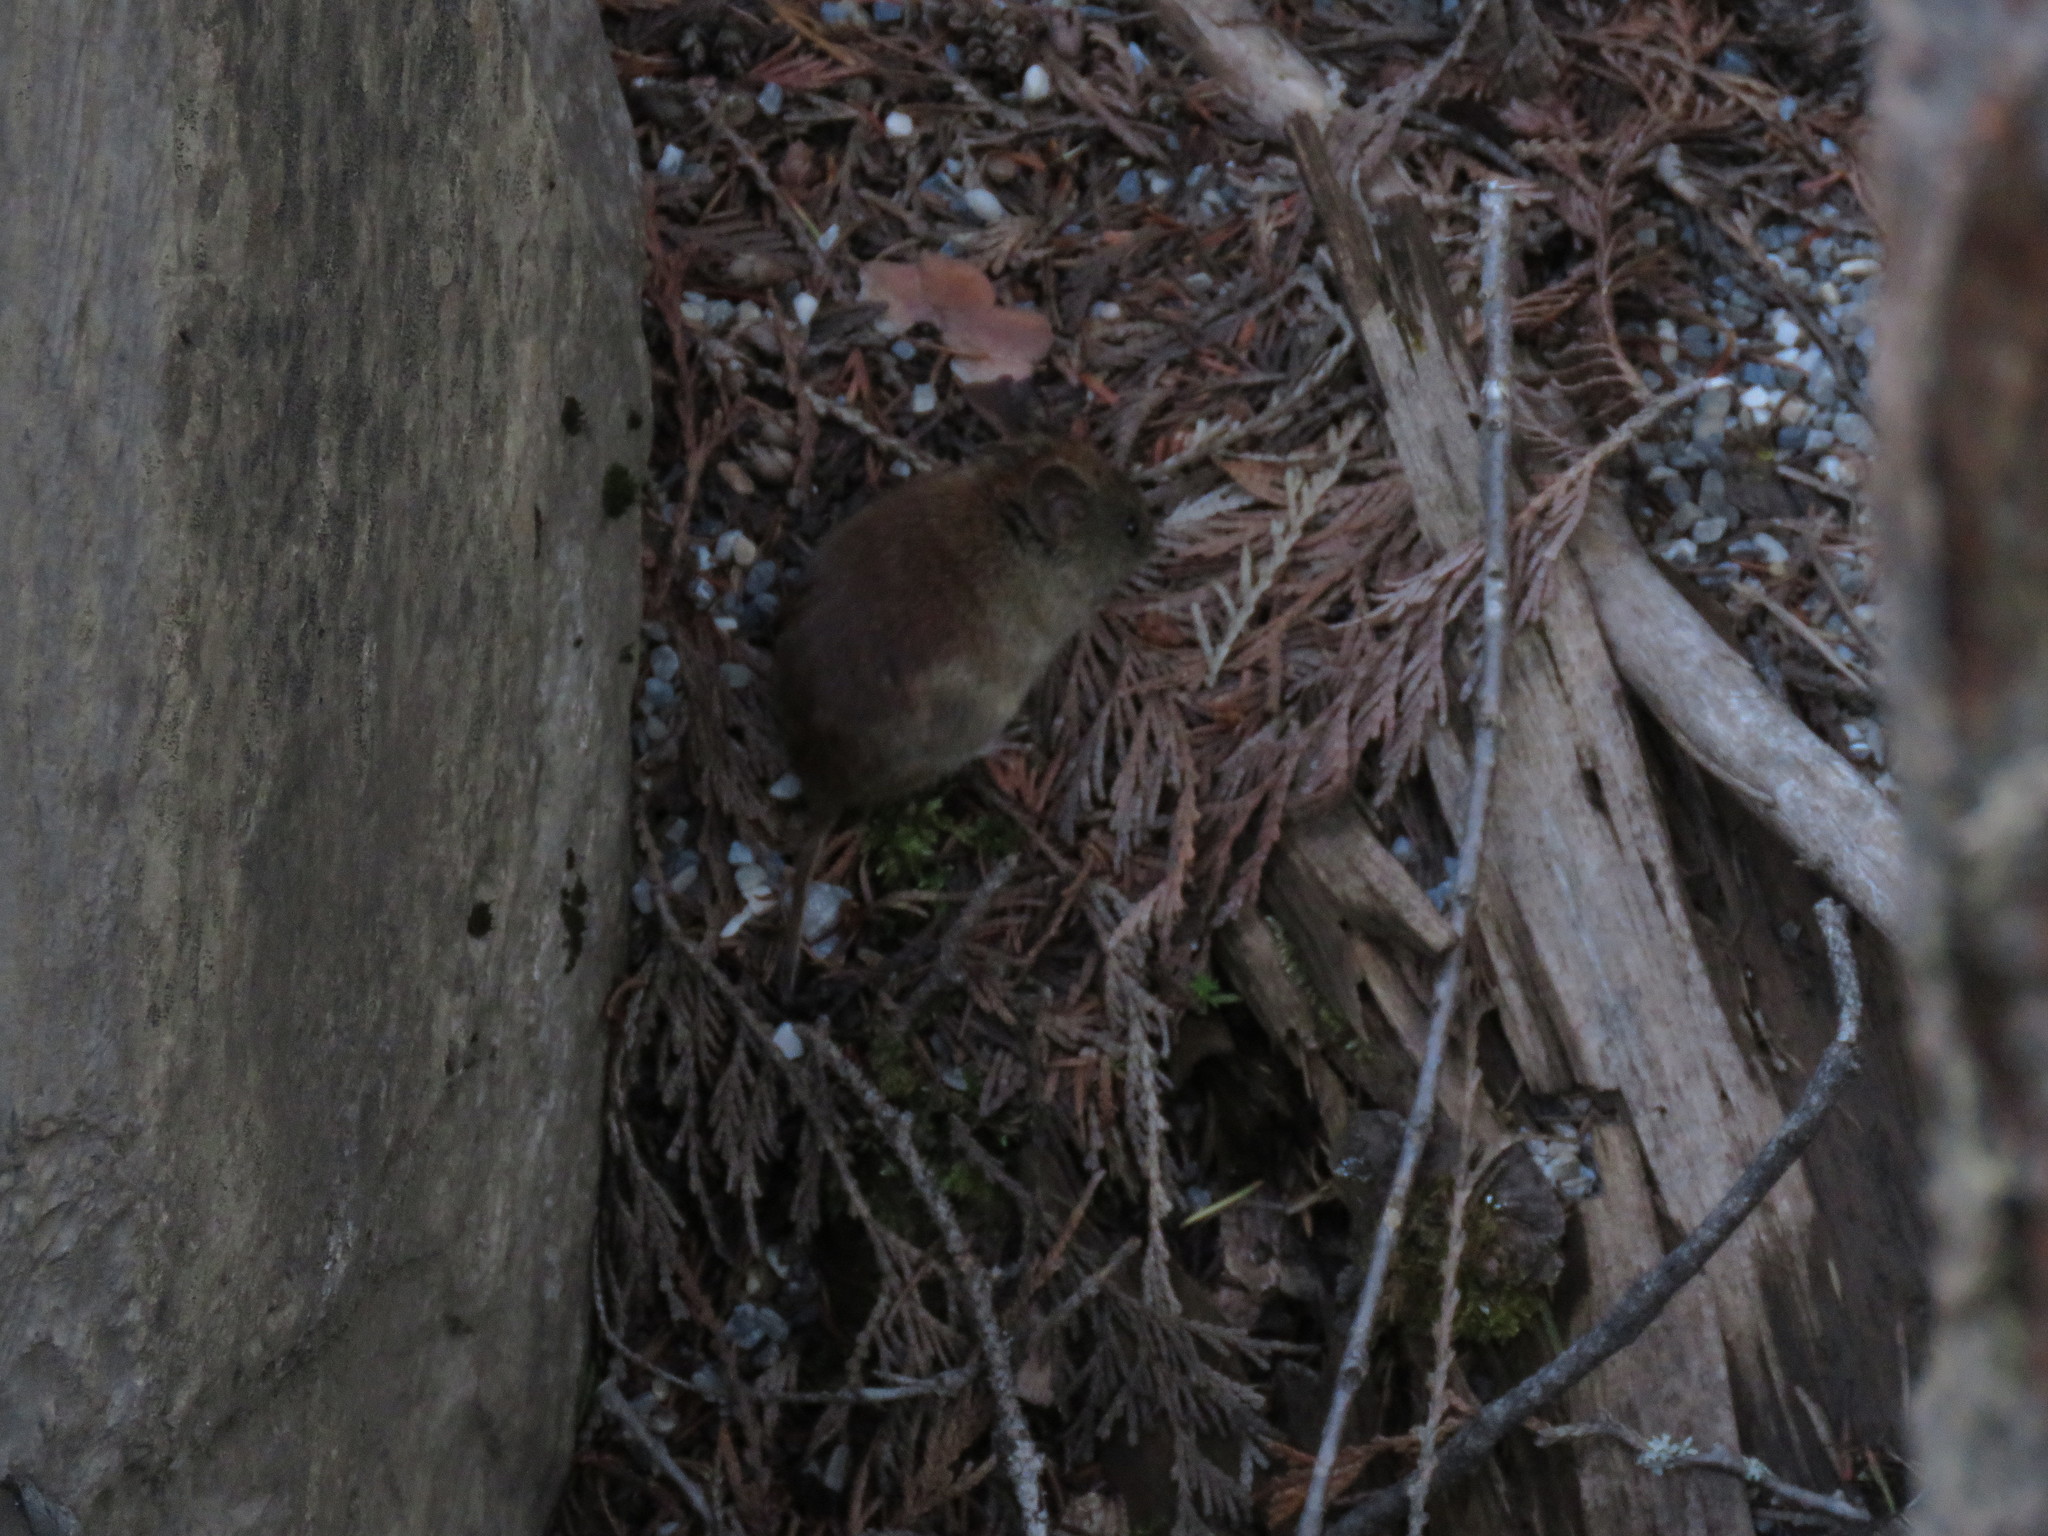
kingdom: Animalia
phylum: Chordata
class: Mammalia
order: Rodentia
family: Cricetidae
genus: Myodes
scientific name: Myodes gapperi
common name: Southern red-backed vole
